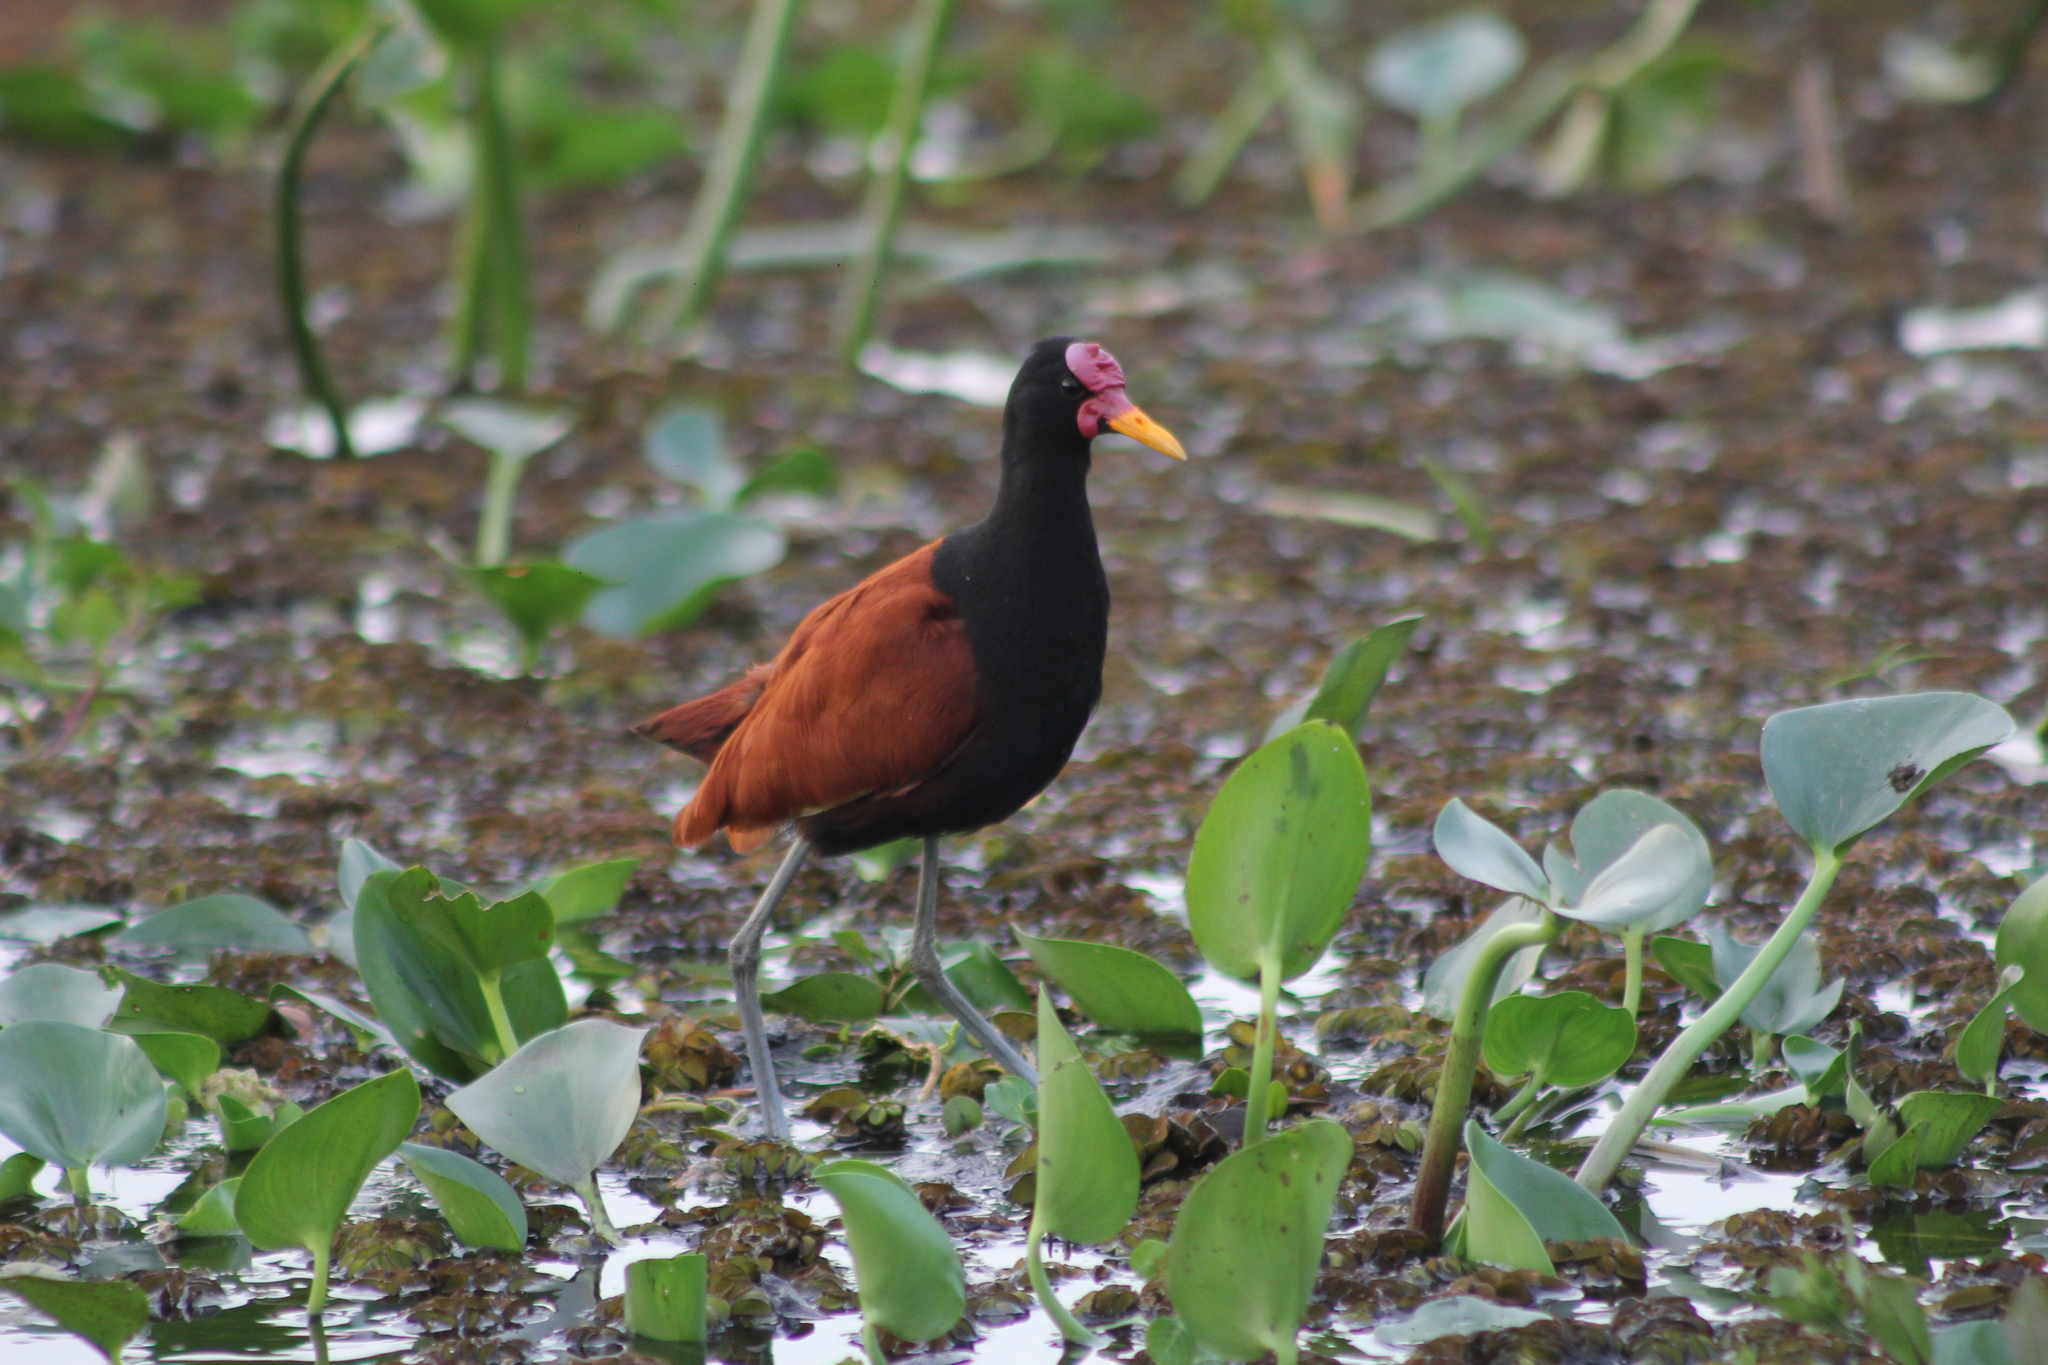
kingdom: Animalia
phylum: Chordata
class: Aves
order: Charadriiformes
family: Jacanidae
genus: Jacana
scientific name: Jacana jacana
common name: Wattled jacana
